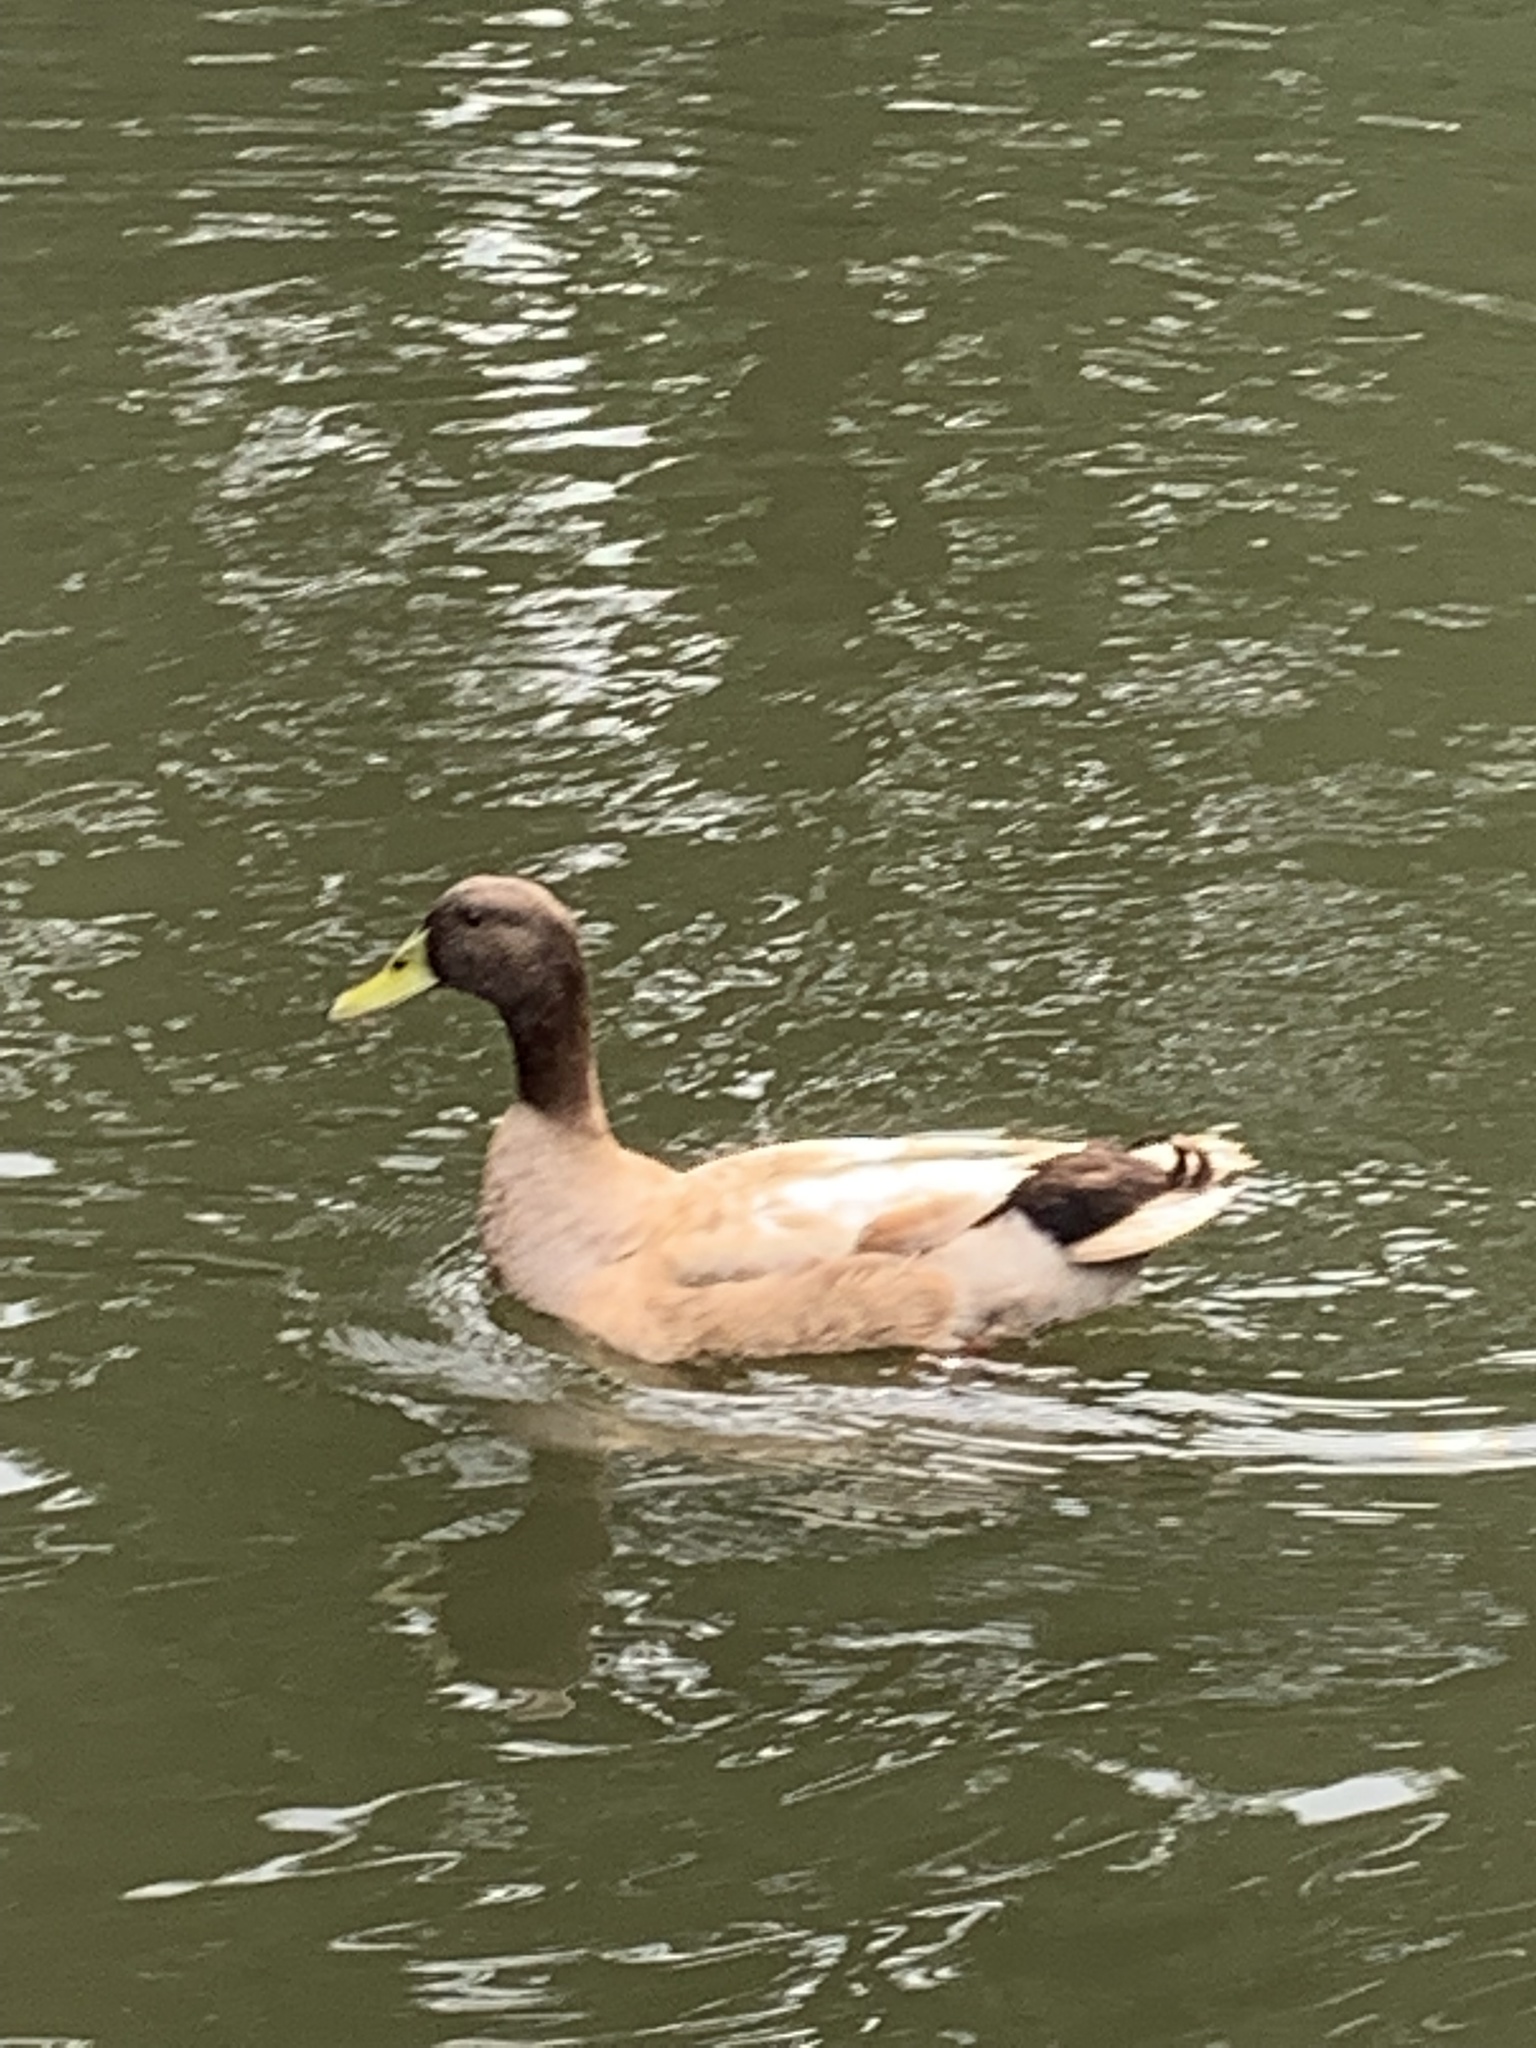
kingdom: Animalia
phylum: Chordata
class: Aves
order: Anseriformes
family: Anatidae
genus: Anas
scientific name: Anas platyrhynchos
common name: Mallard
